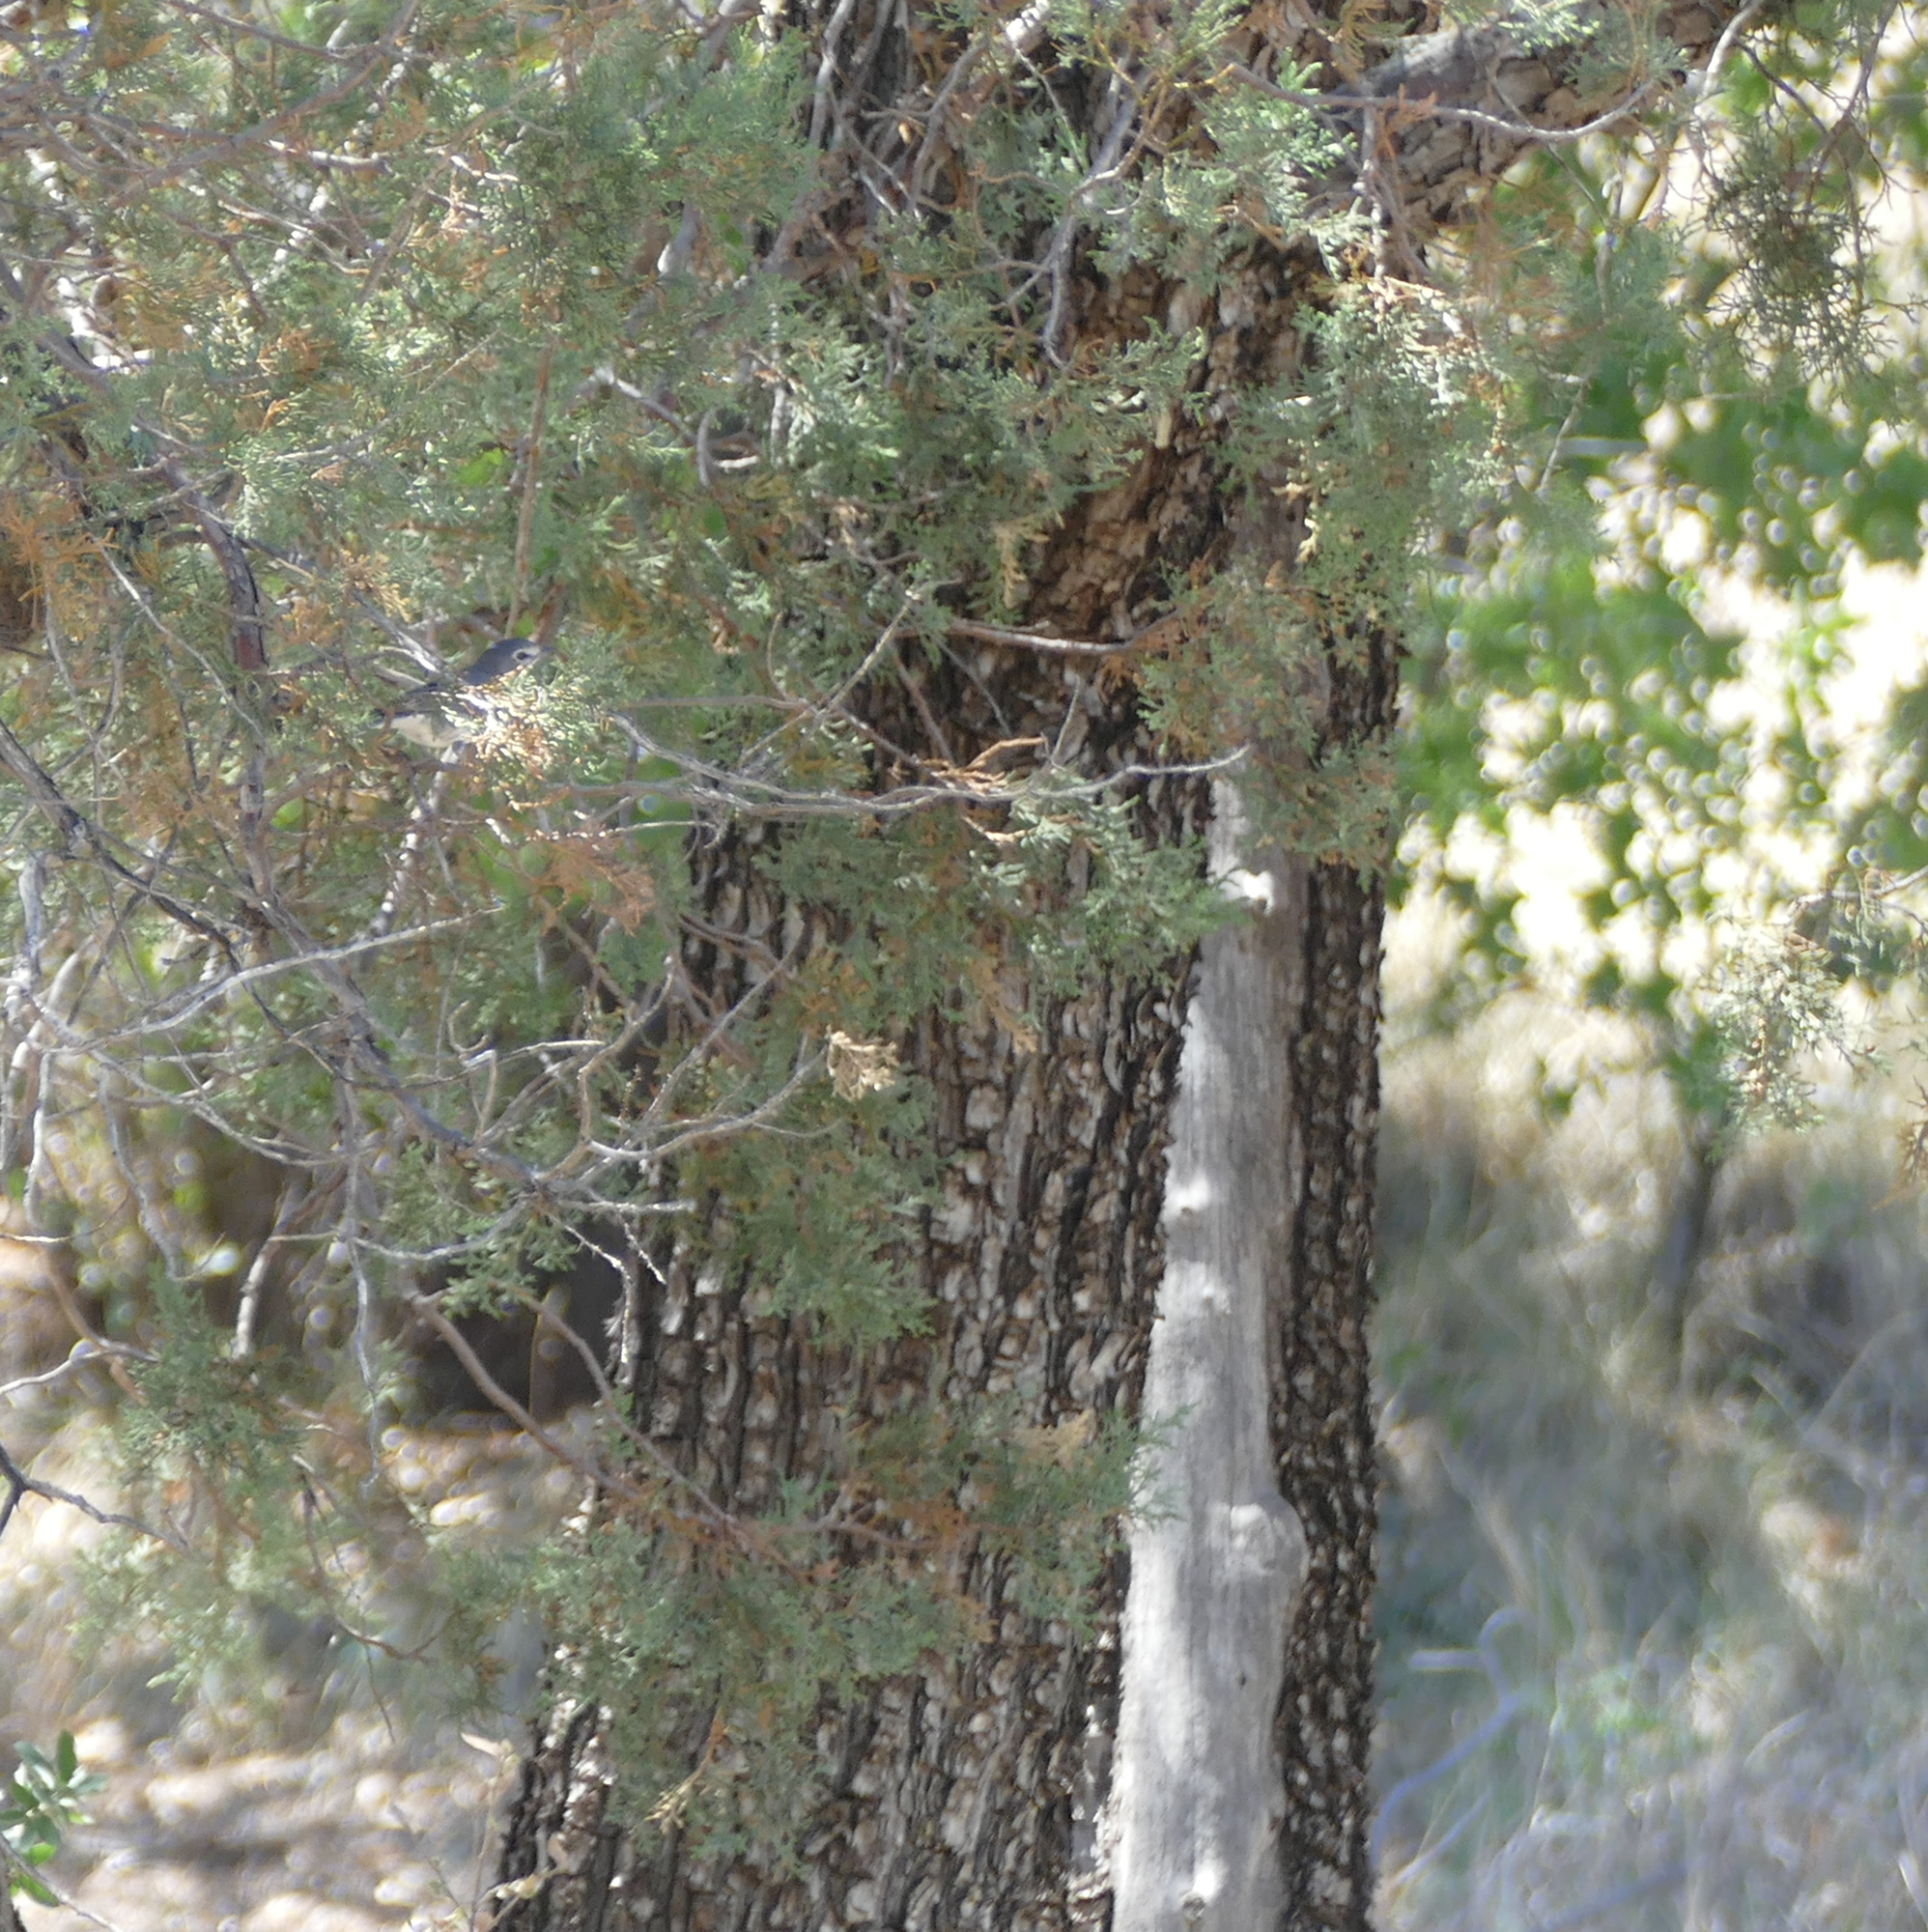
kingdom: Plantae
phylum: Tracheophyta
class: Pinopsida
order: Pinales
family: Cupressaceae
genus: Juniperus
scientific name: Juniperus deppeana
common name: Alligator juniper
